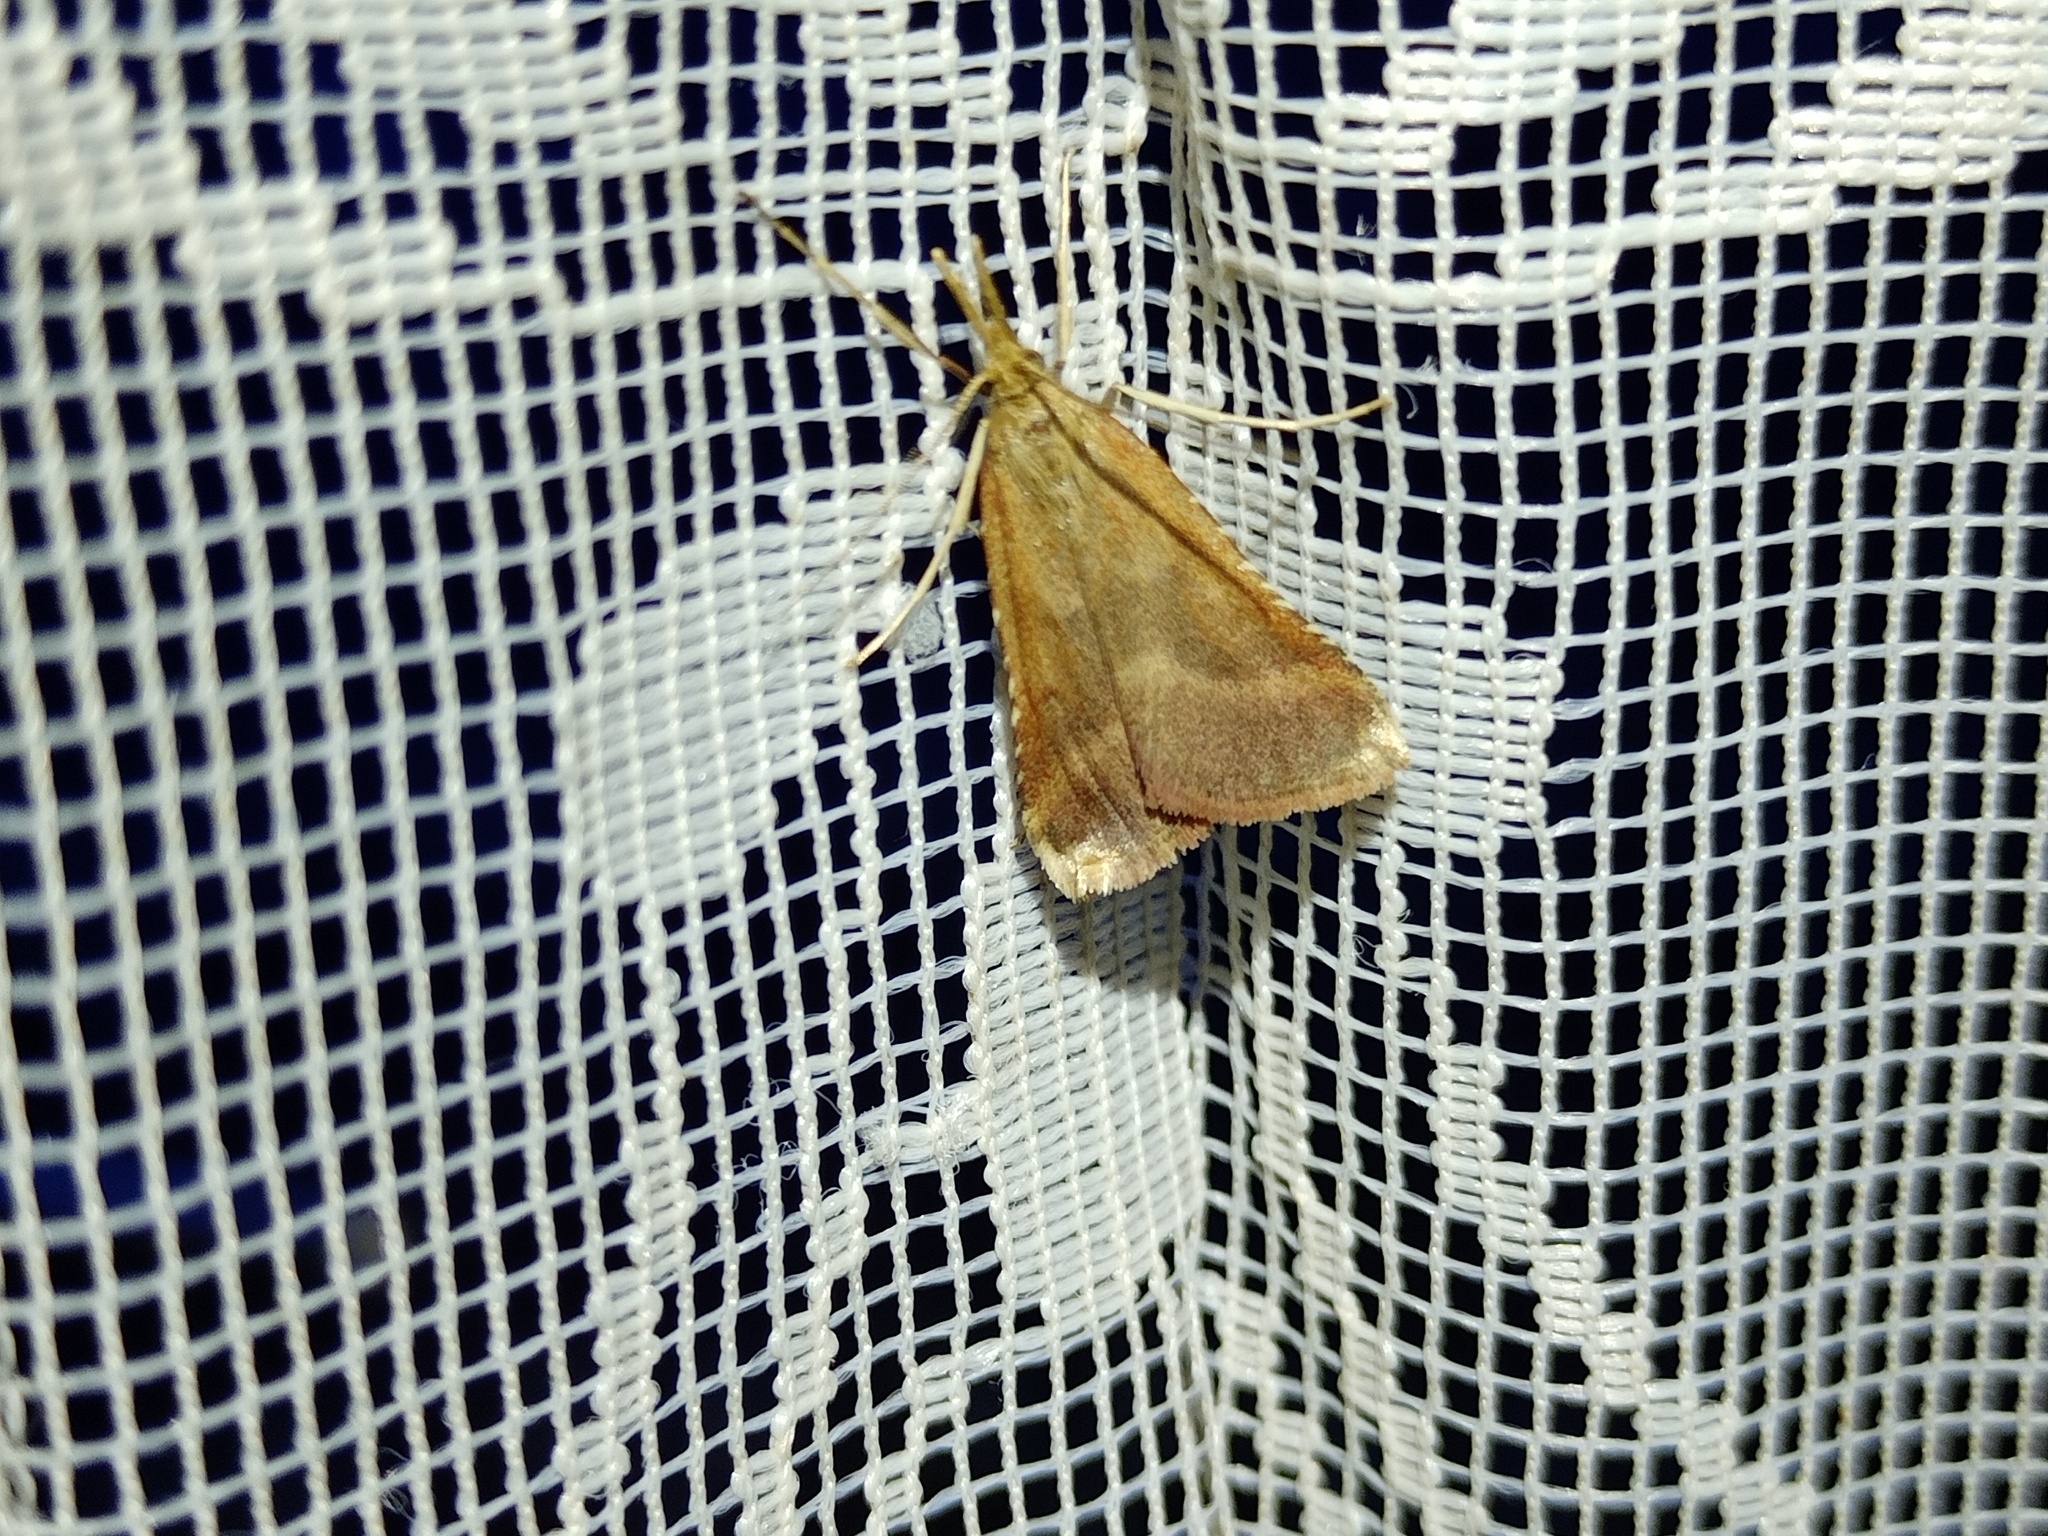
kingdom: Animalia
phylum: Arthropoda
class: Insecta
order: Lepidoptera
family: Pyralidae
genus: Synaphe
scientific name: Synaphe punctalis
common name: Long-legged tabby
